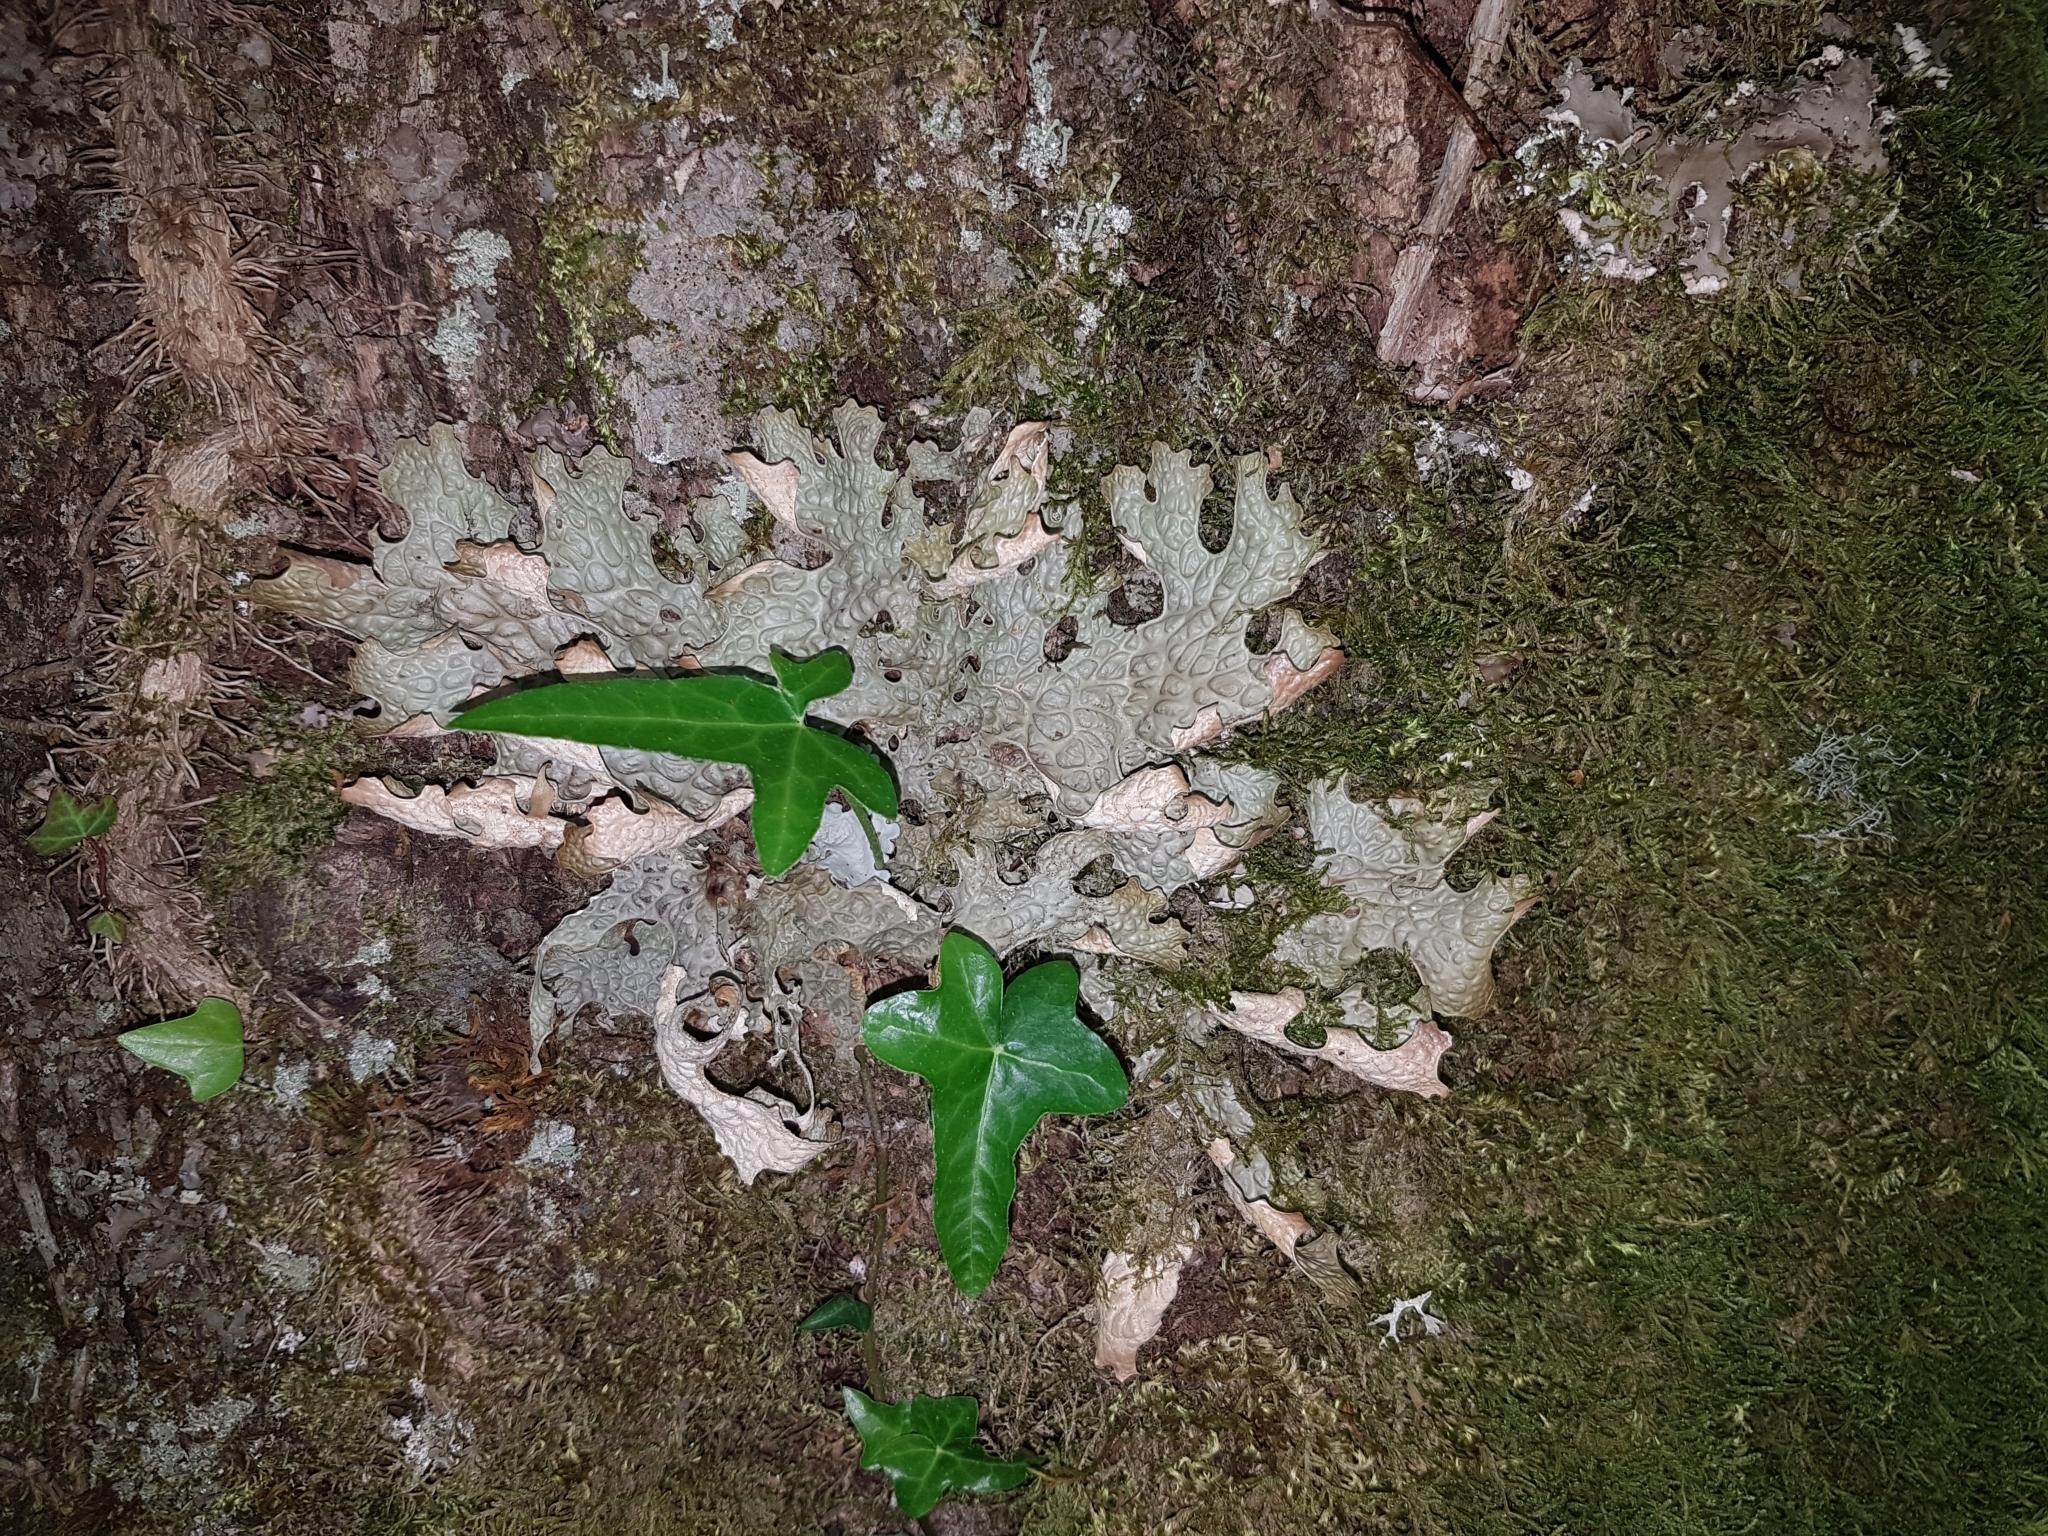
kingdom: Fungi
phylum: Ascomycota
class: Lecanoromycetes
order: Peltigerales
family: Lobariaceae
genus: Lobaria
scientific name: Lobaria pulmonaria
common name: Lungwort
